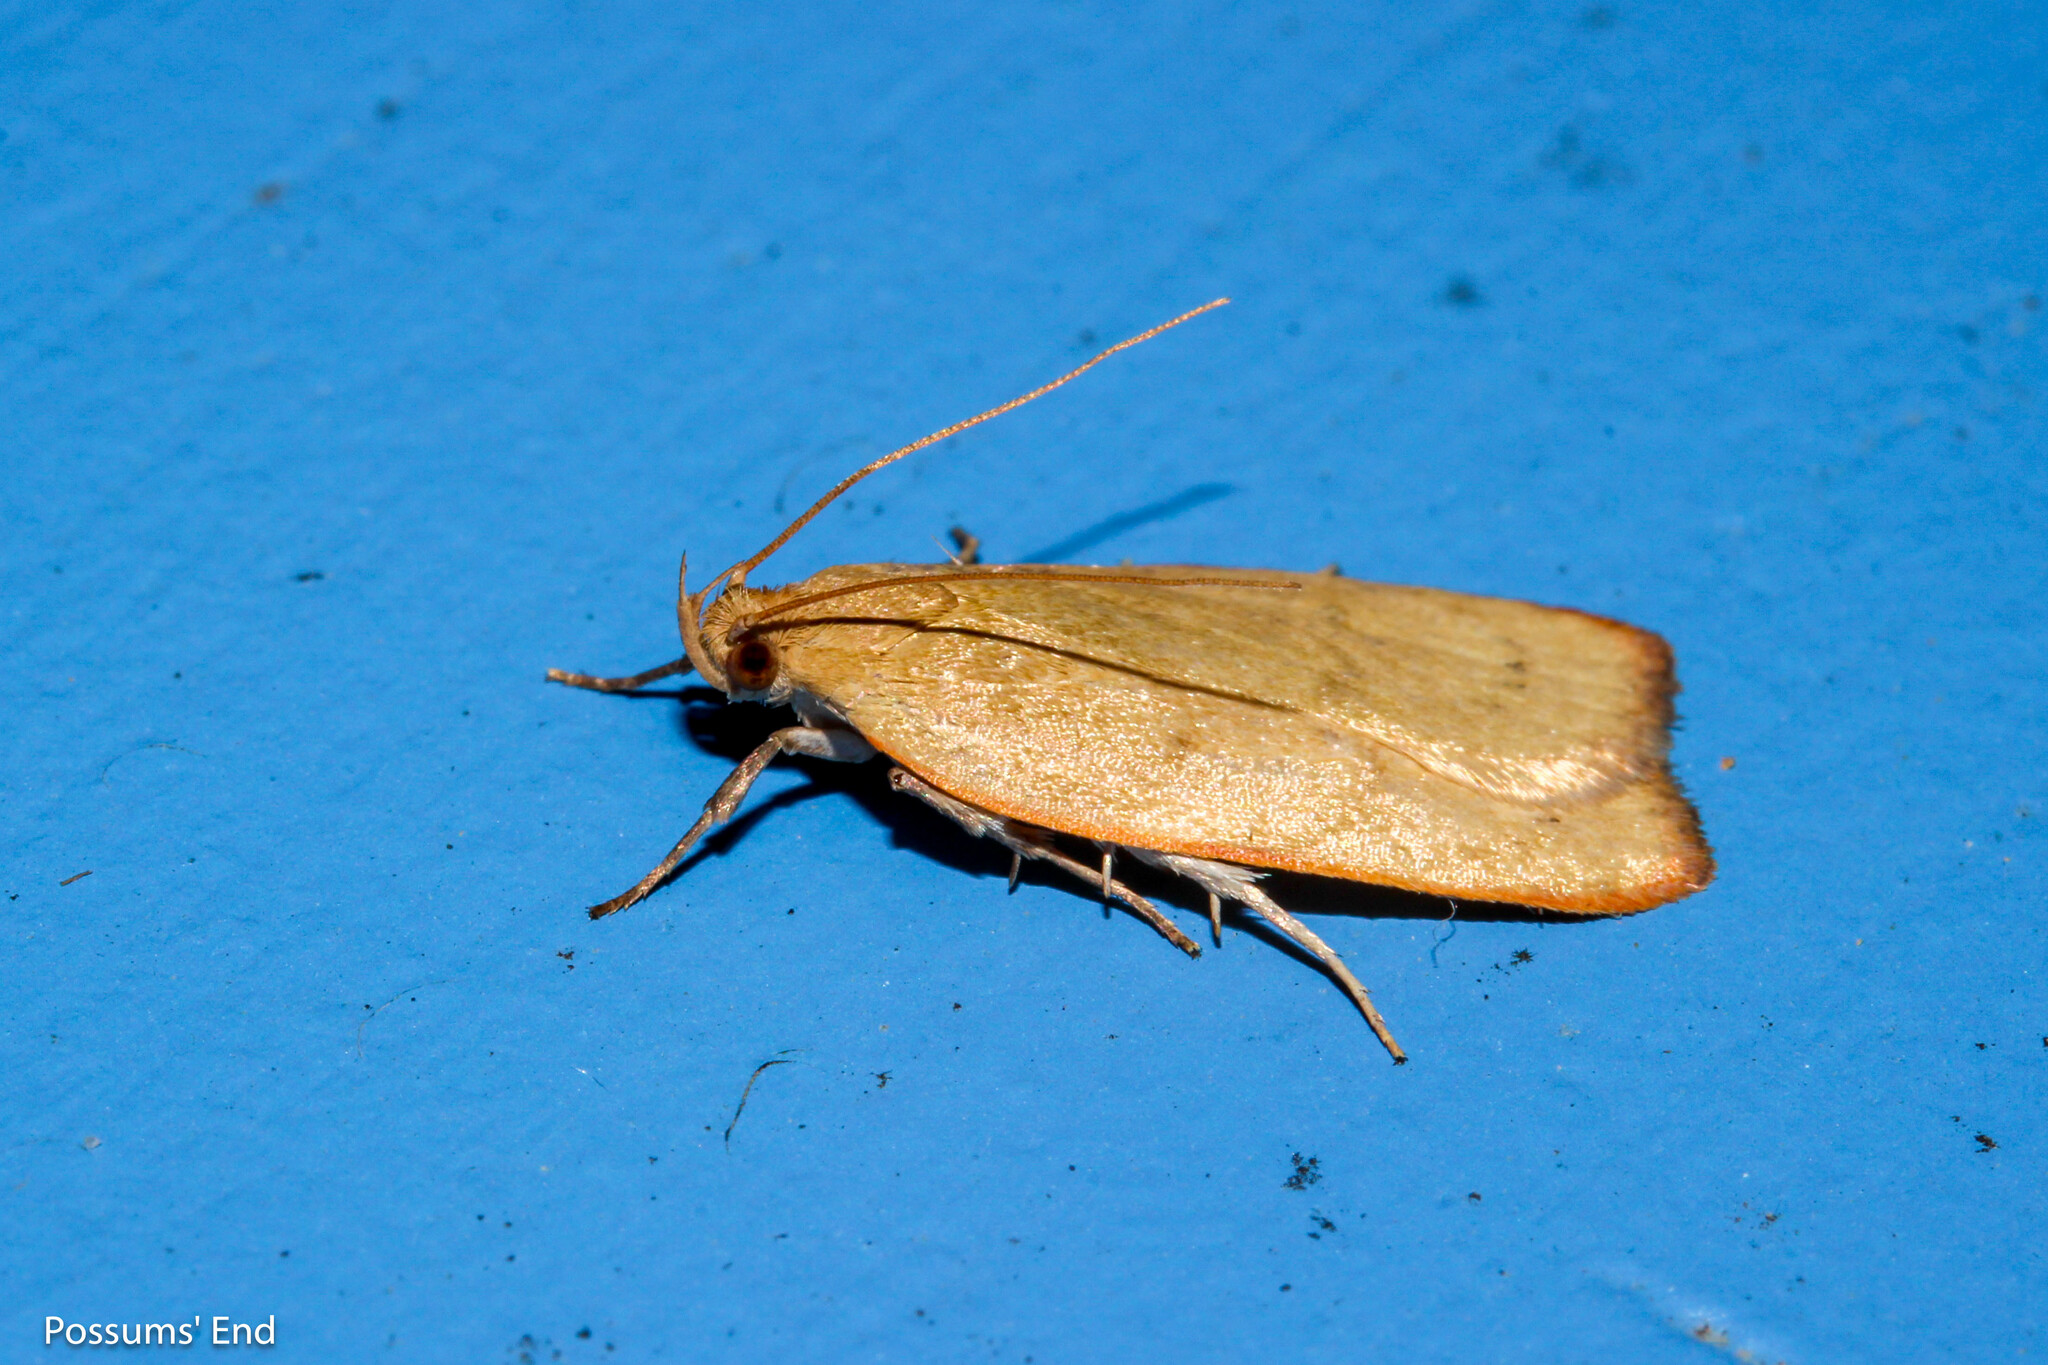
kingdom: Animalia
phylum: Arthropoda
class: Insecta
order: Lepidoptera
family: Depressariidae
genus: Phaeosaces
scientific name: Phaeosaces coarctatella
